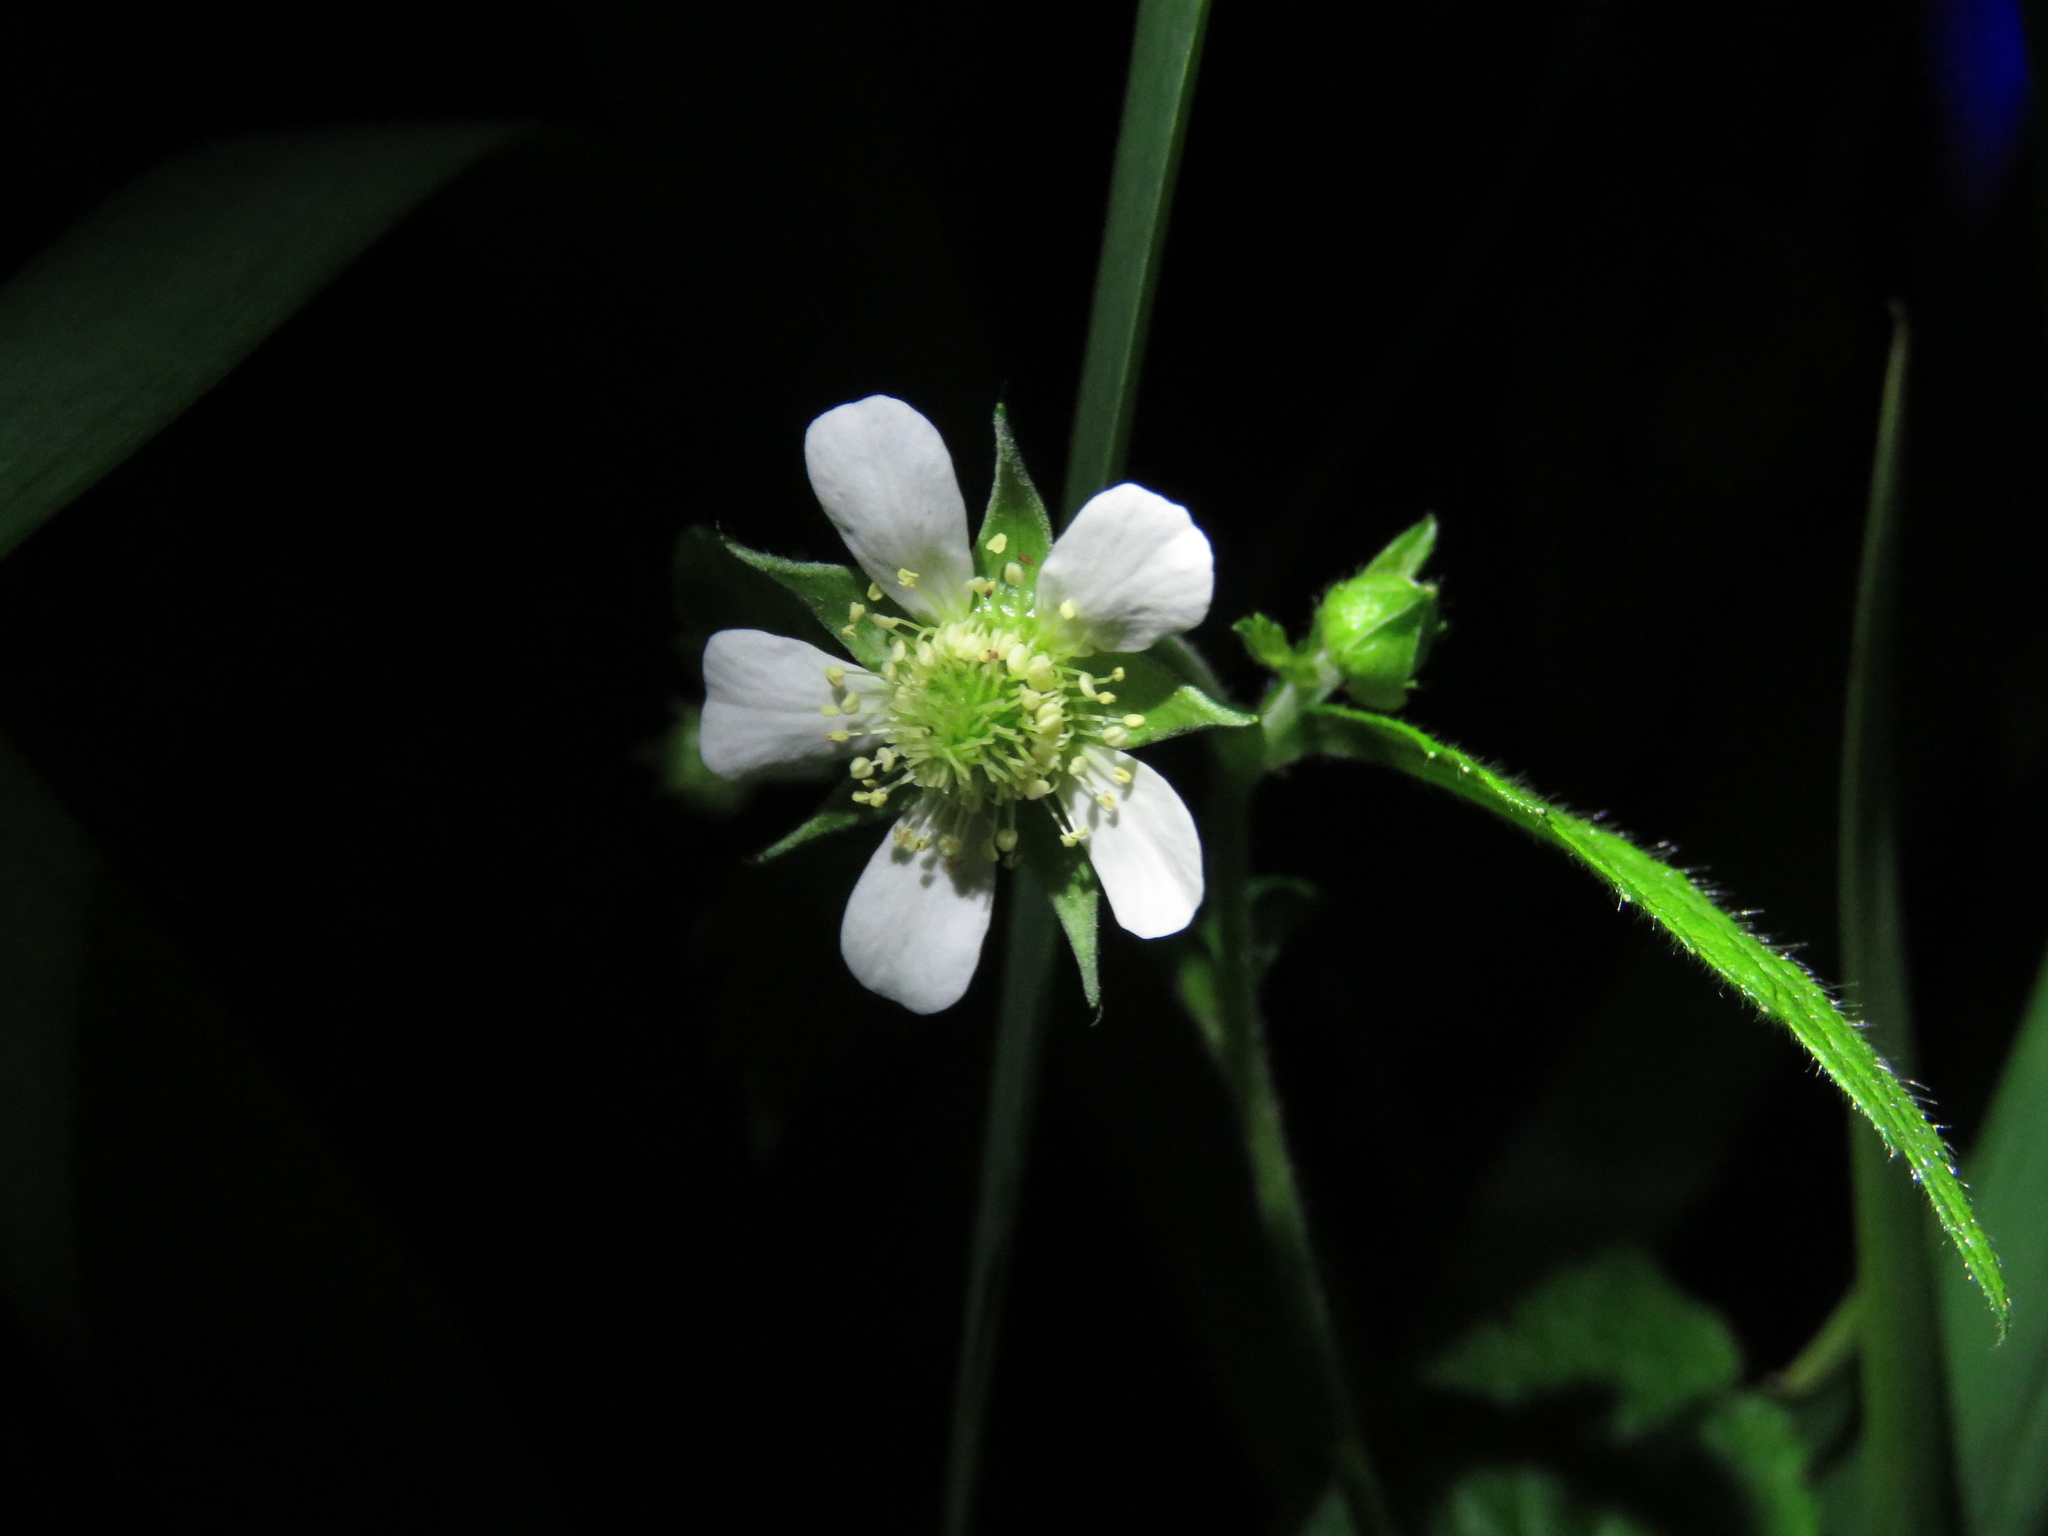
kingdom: Plantae
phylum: Tracheophyta
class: Magnoliopsida
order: Rosales
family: Rosaceae
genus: Geum
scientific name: Geum canadense
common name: White avens
